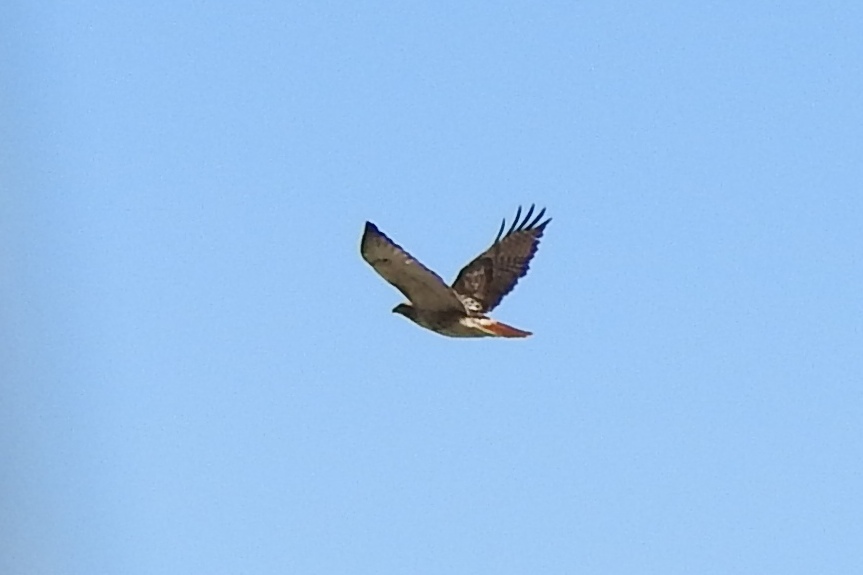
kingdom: Animalia
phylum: Chordata
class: Aves
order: Accipitriformes
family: Accipitridae
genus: Buteo
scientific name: Buteo jamaicensis
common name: Red-tailed hawk
